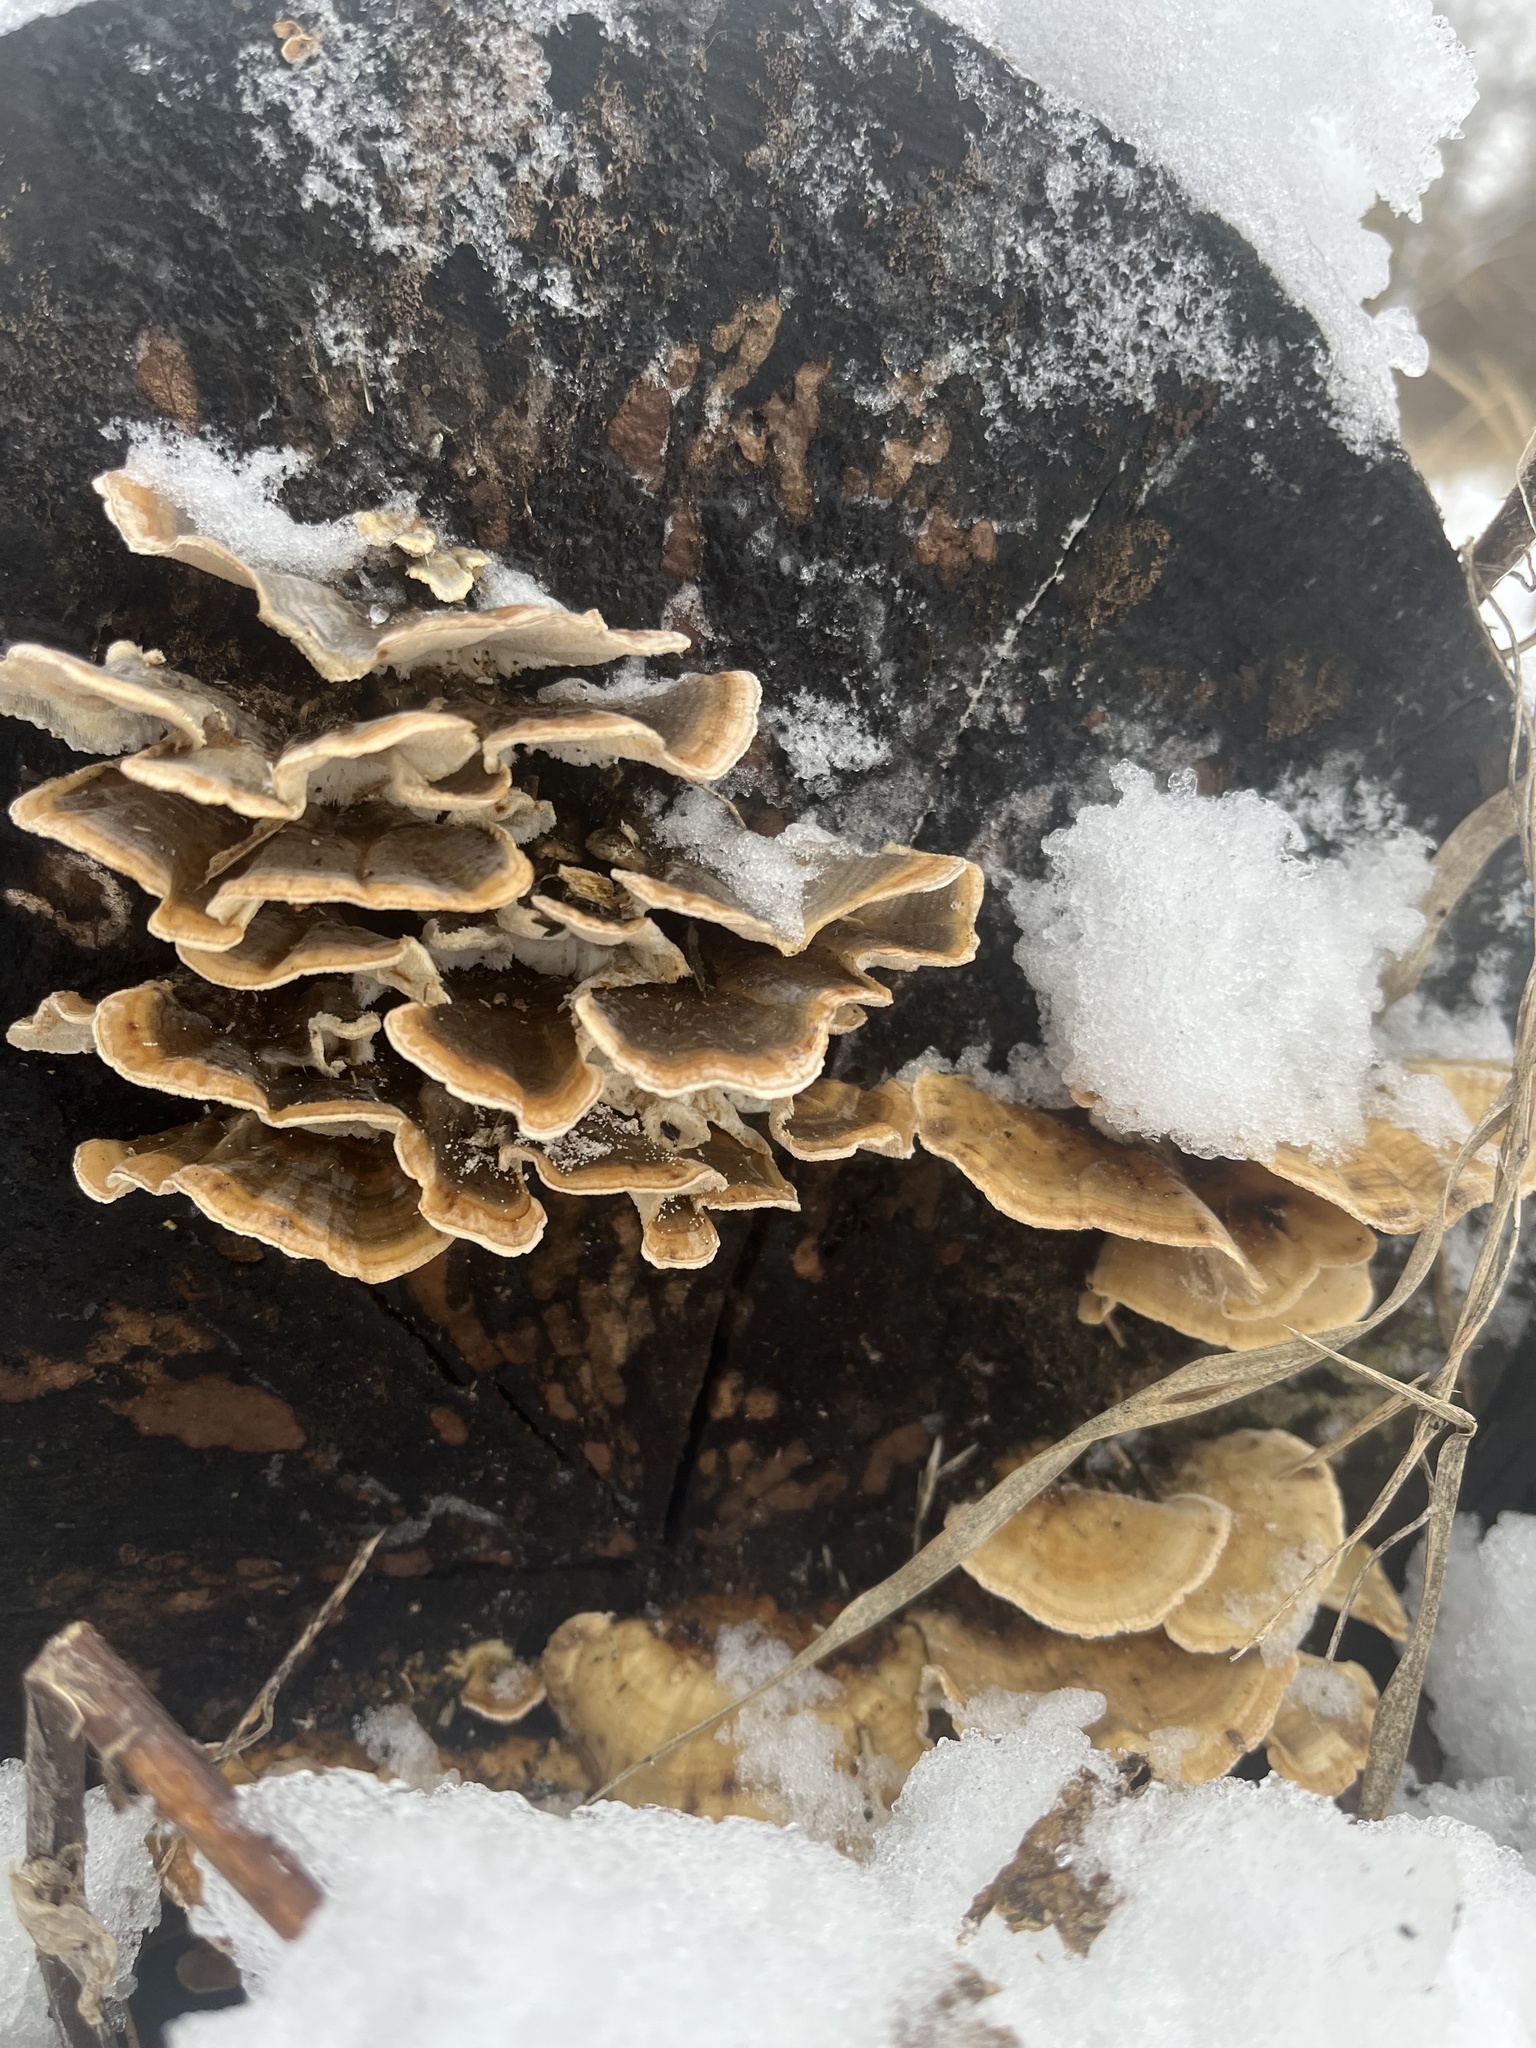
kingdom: Fungi
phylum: Basidiomycota
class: Agaricomycetes
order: Polyporales
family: Polyporaceae
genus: Trametes
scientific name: Trametes versicolor
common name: Turkeytail
